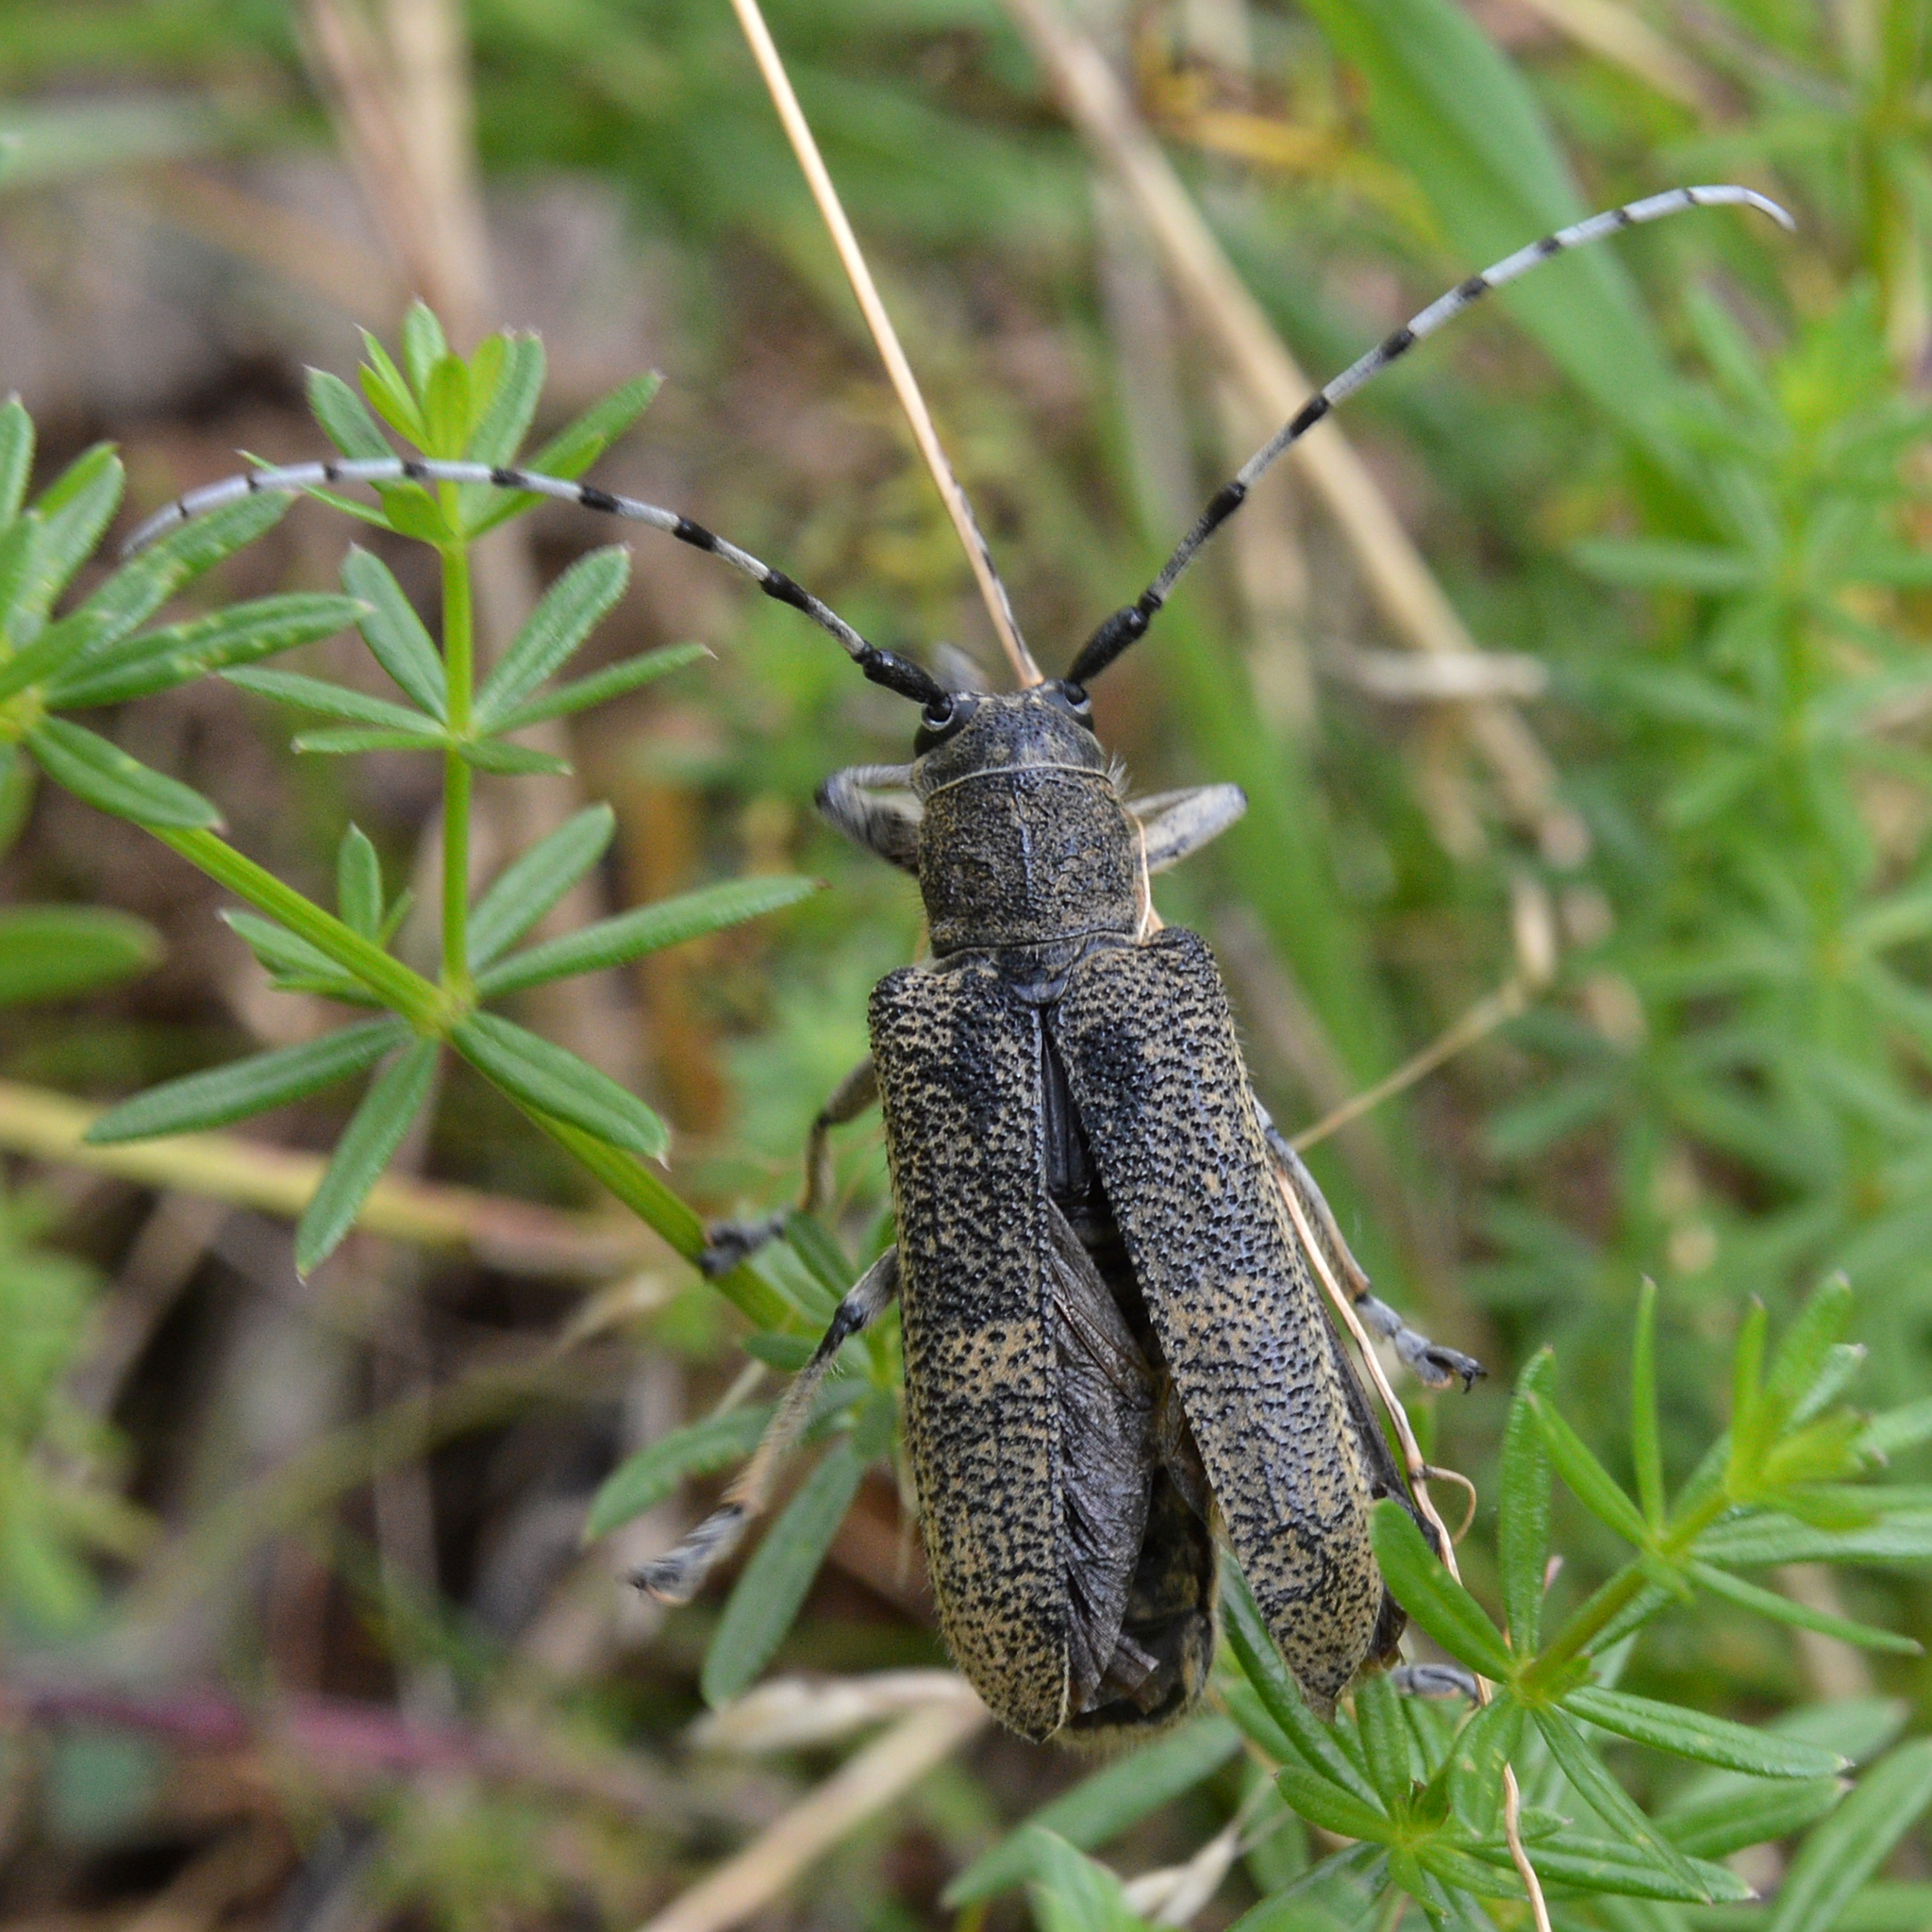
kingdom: Animalia
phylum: Arthropoda
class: Insecta
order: Coleoptera
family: Cerambycidae
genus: Saperda
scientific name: Saperda carcharias
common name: Poplar borer
